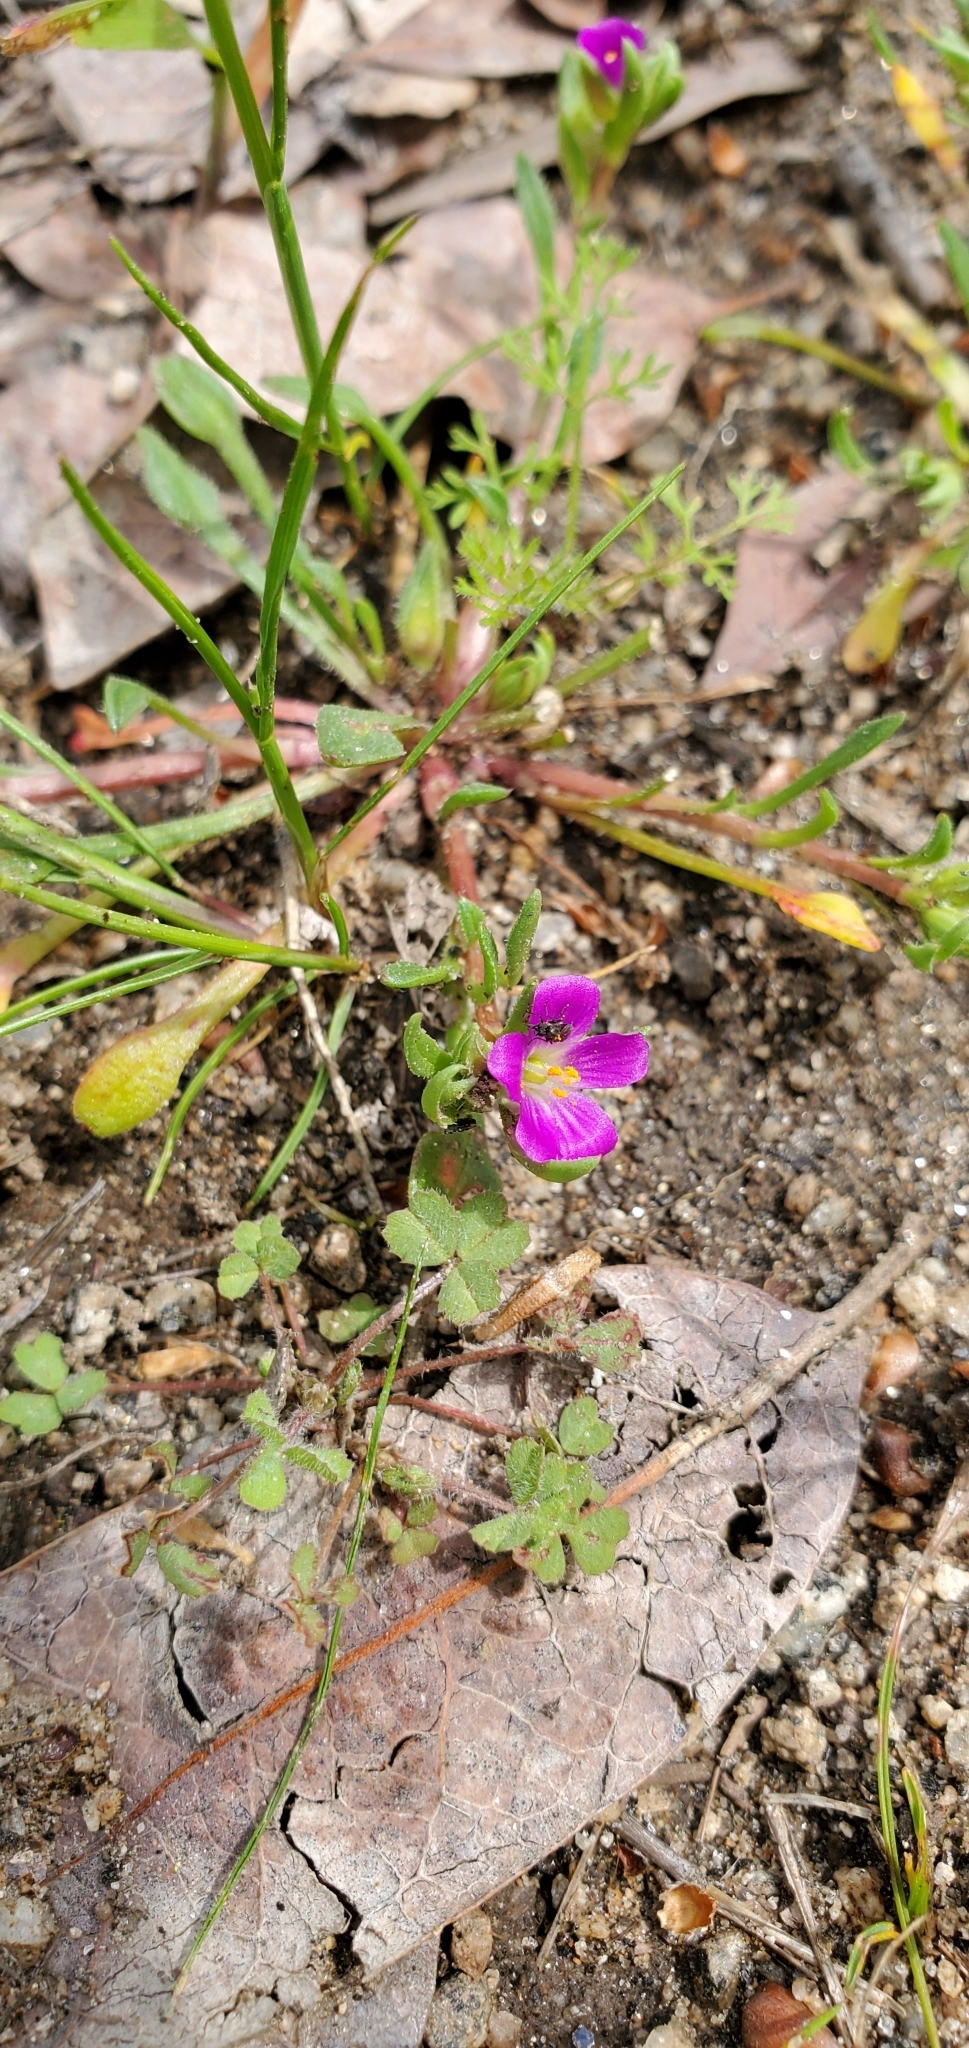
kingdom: Plantae
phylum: Tracheophyta
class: Magnoliopsida
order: Caryophyllales
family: Montiaceae
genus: Calandrinia
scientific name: Calandrinia menziesii
